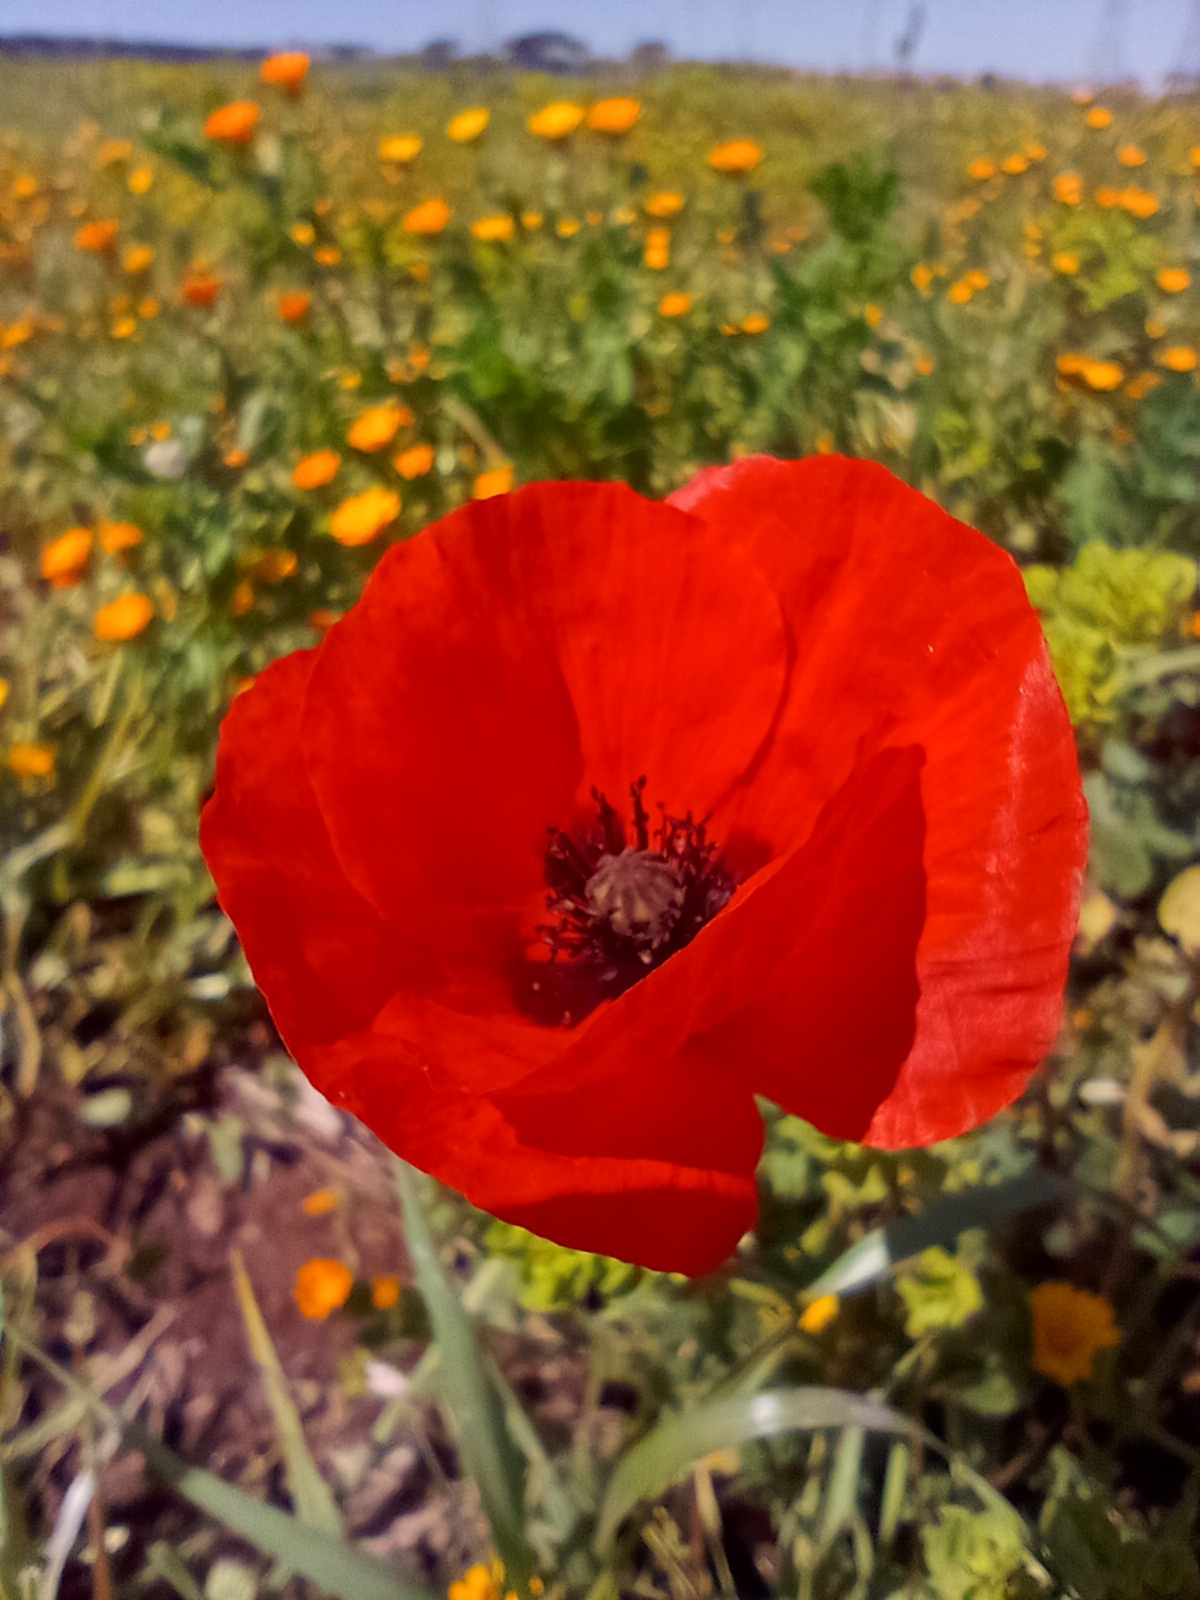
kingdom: Plantae
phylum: Tracheophyta
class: Magnoliopsida
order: Ranunculales
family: Papaveraceae
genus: Papaver
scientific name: Papaver rhoeas
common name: Corn poppy
